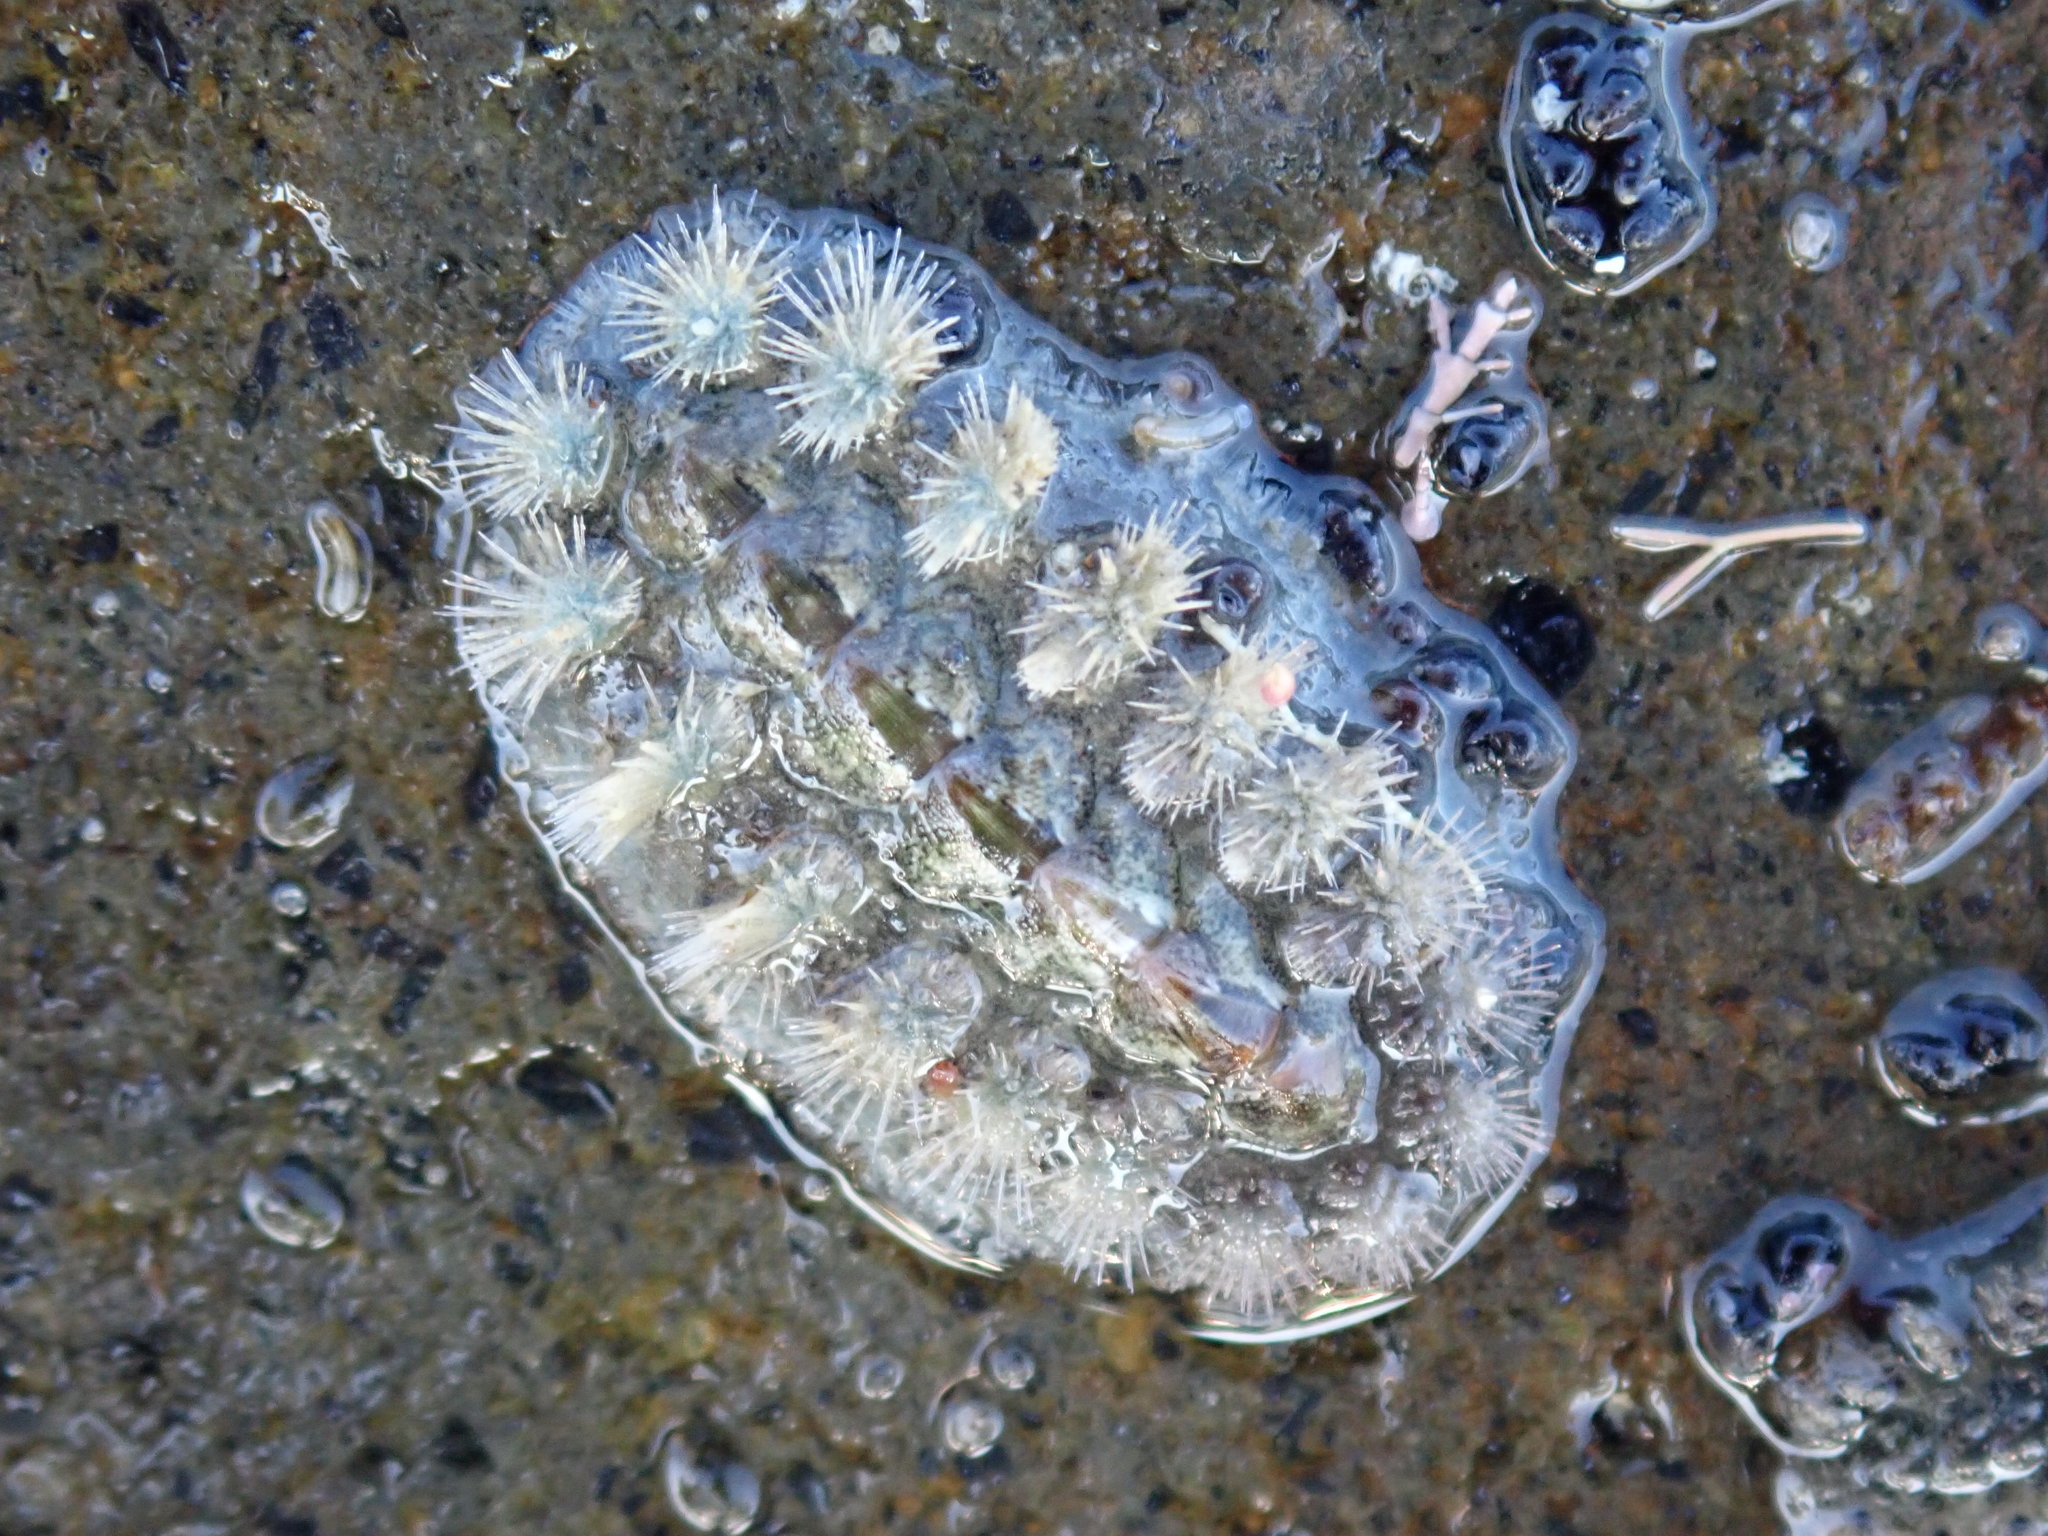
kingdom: Animalia
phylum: Mollusca
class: Polyplacophora
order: Chitonida
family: Acanthochitonidae
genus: Acanthochitona
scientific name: Acanthochitona zelandica
